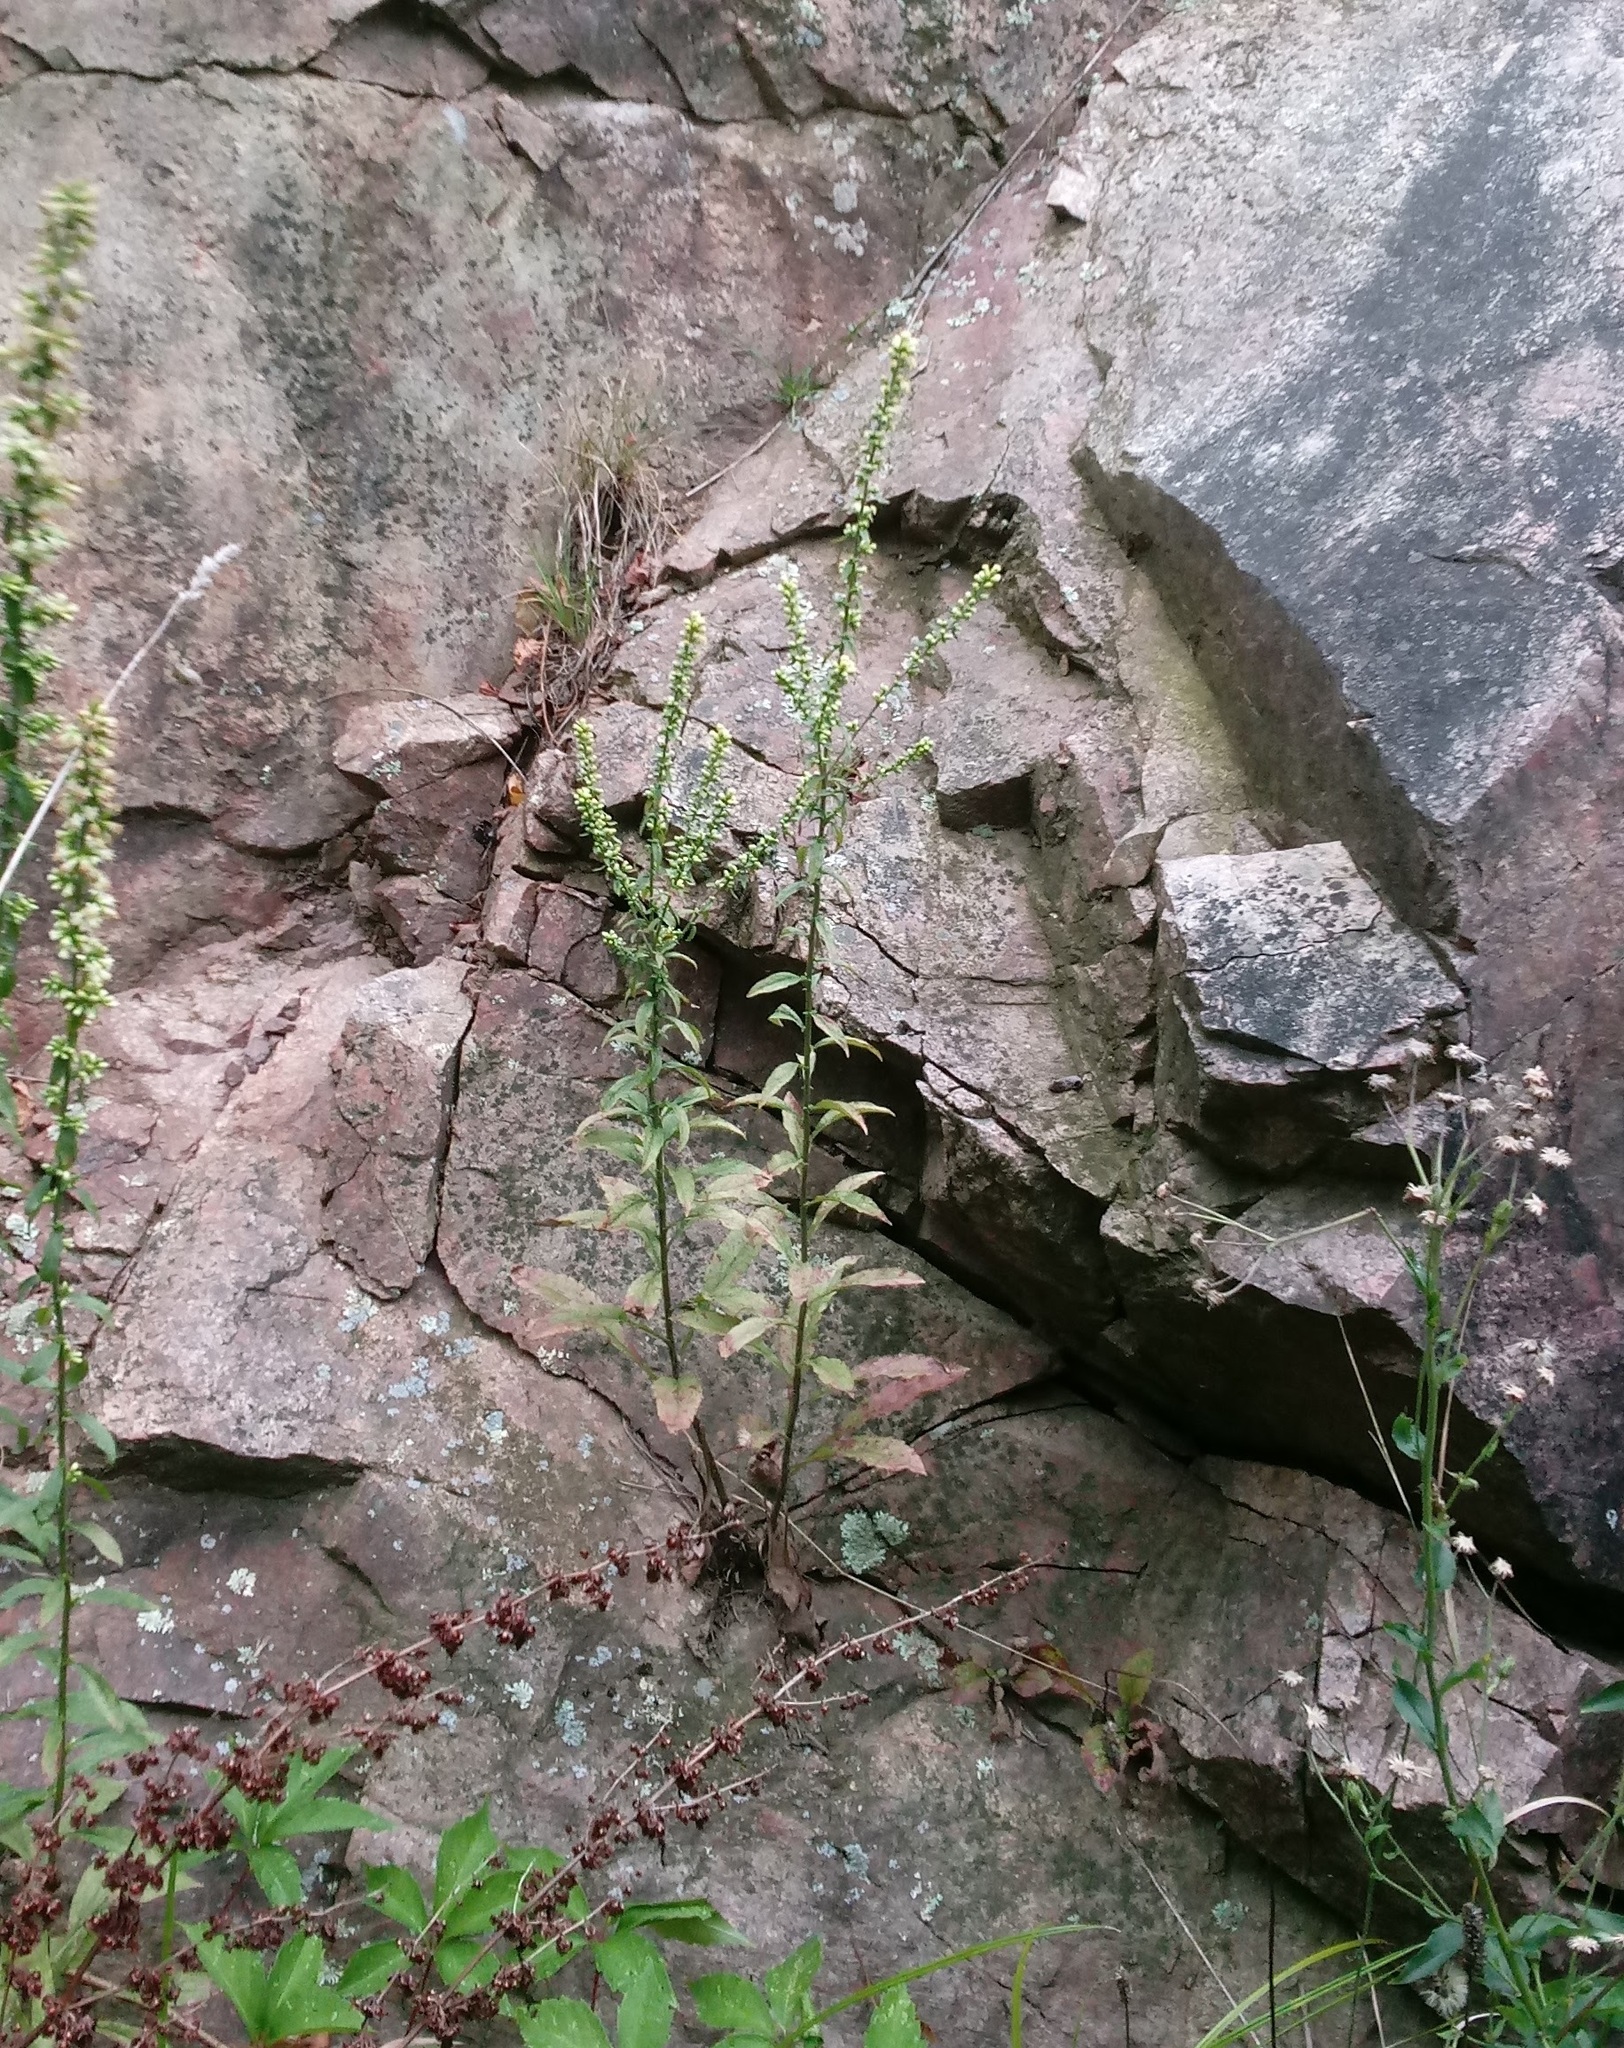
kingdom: Plantae
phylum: Tracheophyta
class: Magnoliopsida
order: Asterales
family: Asteraceae
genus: Solidago
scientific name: Solidago bicolor
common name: Silverrod
